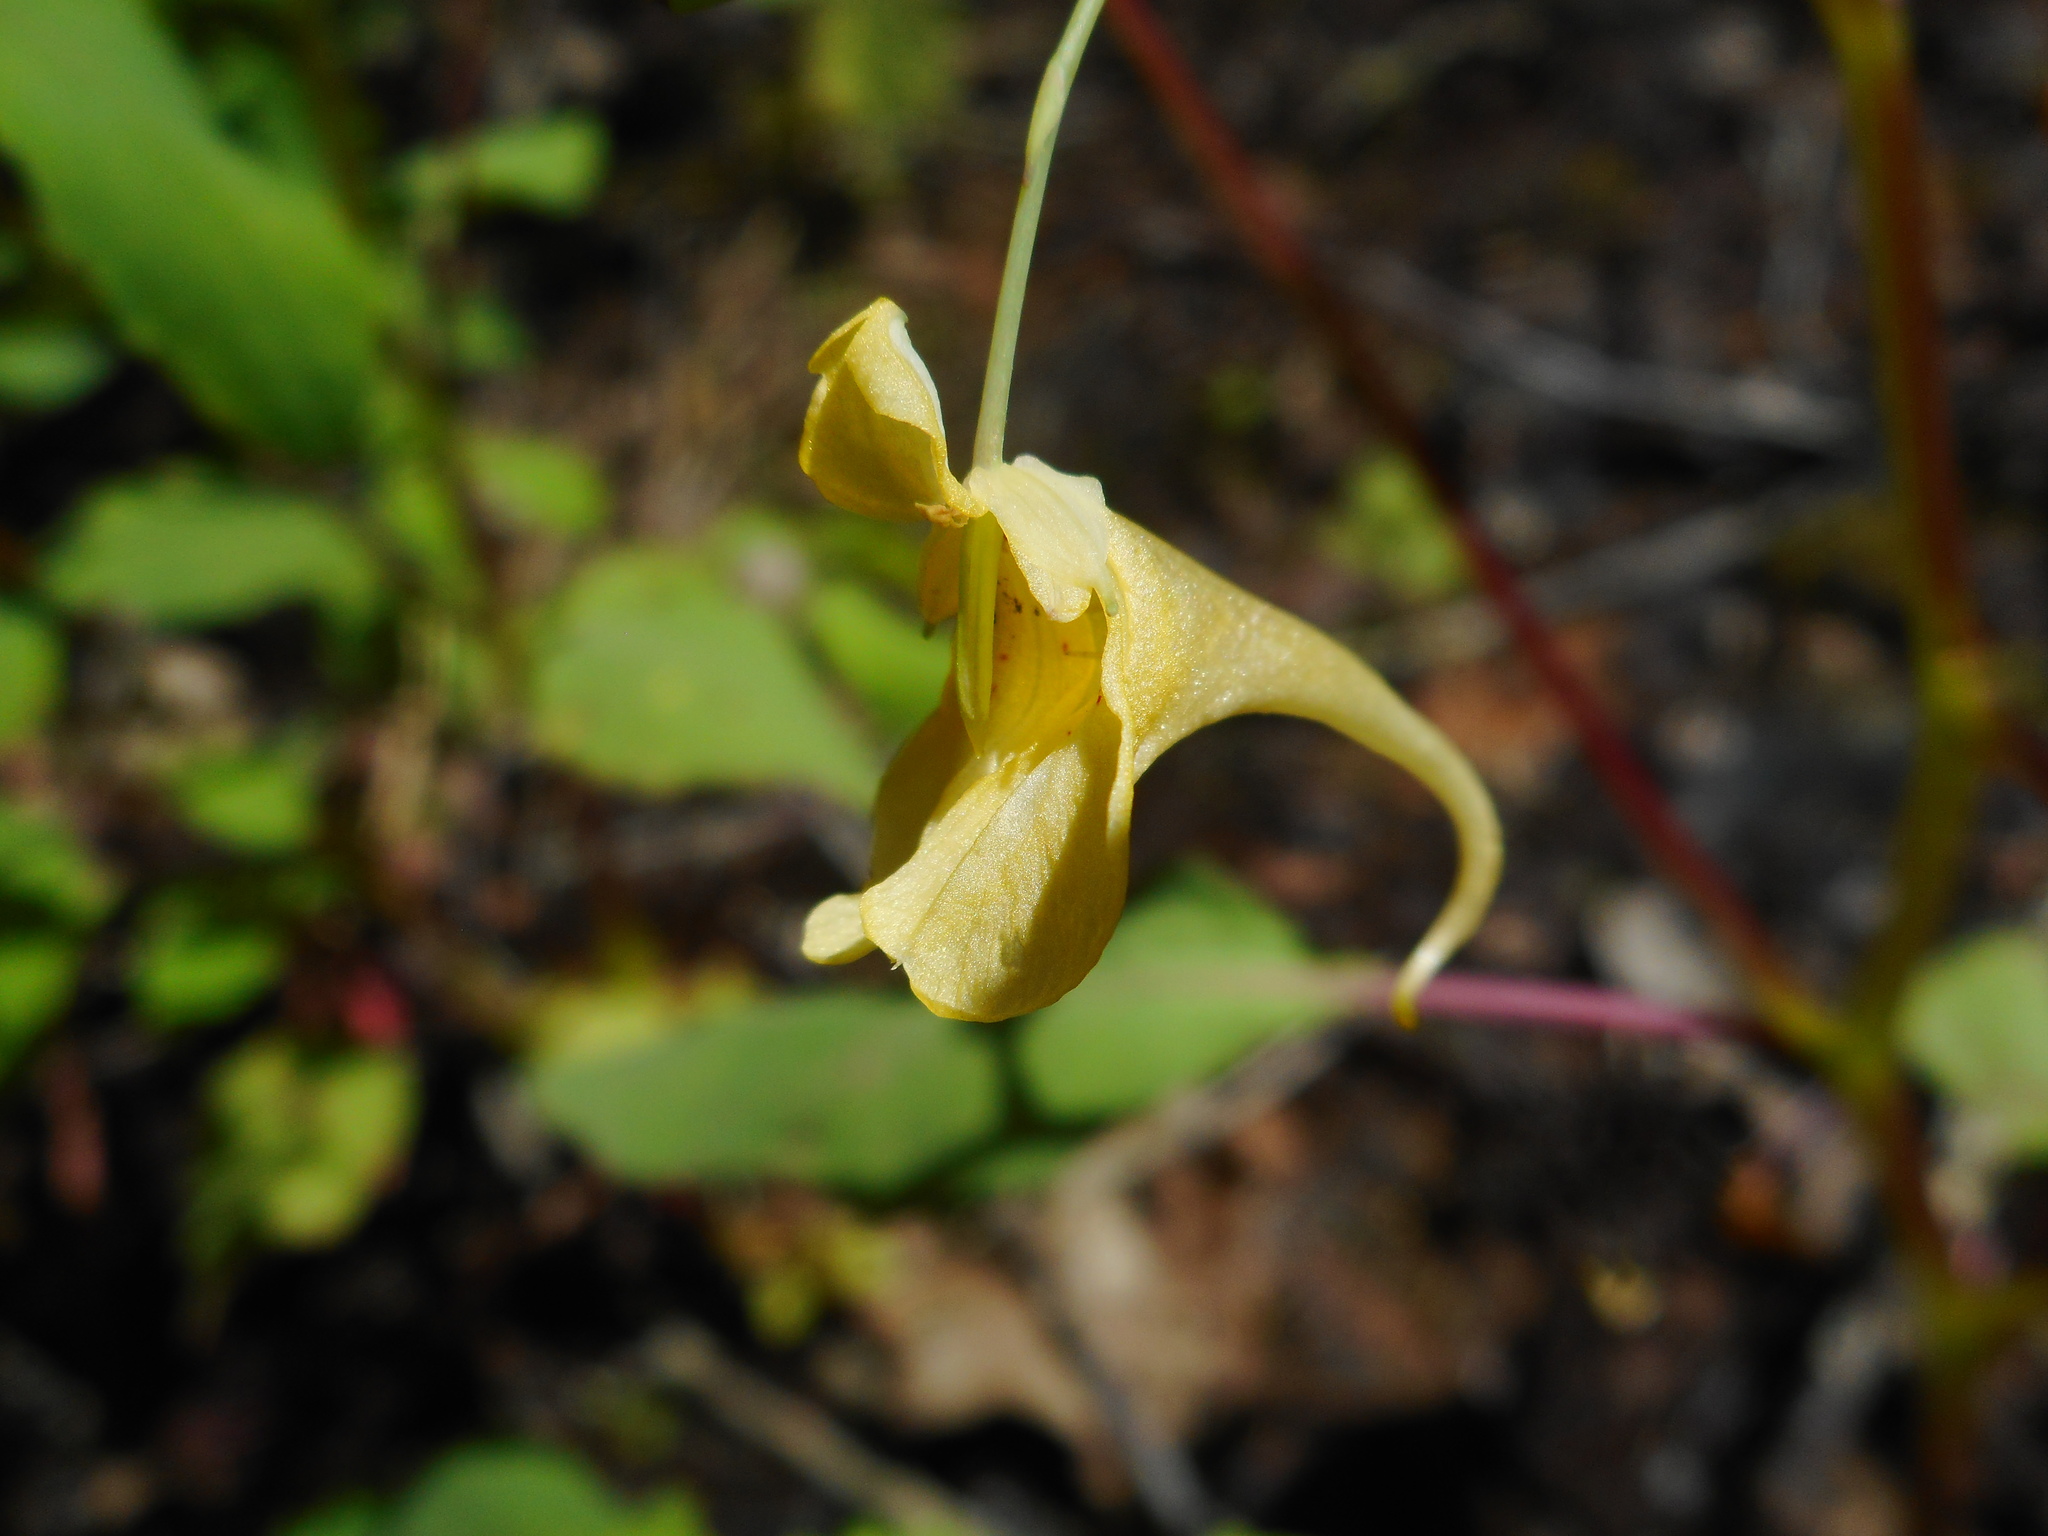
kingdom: Plantae
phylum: Tracheophyta
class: Magnoliopsida
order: Ericales
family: Balsaminaceae
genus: Impatiens
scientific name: Impatiens noli-tangere
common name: Touch-me-not balsam
